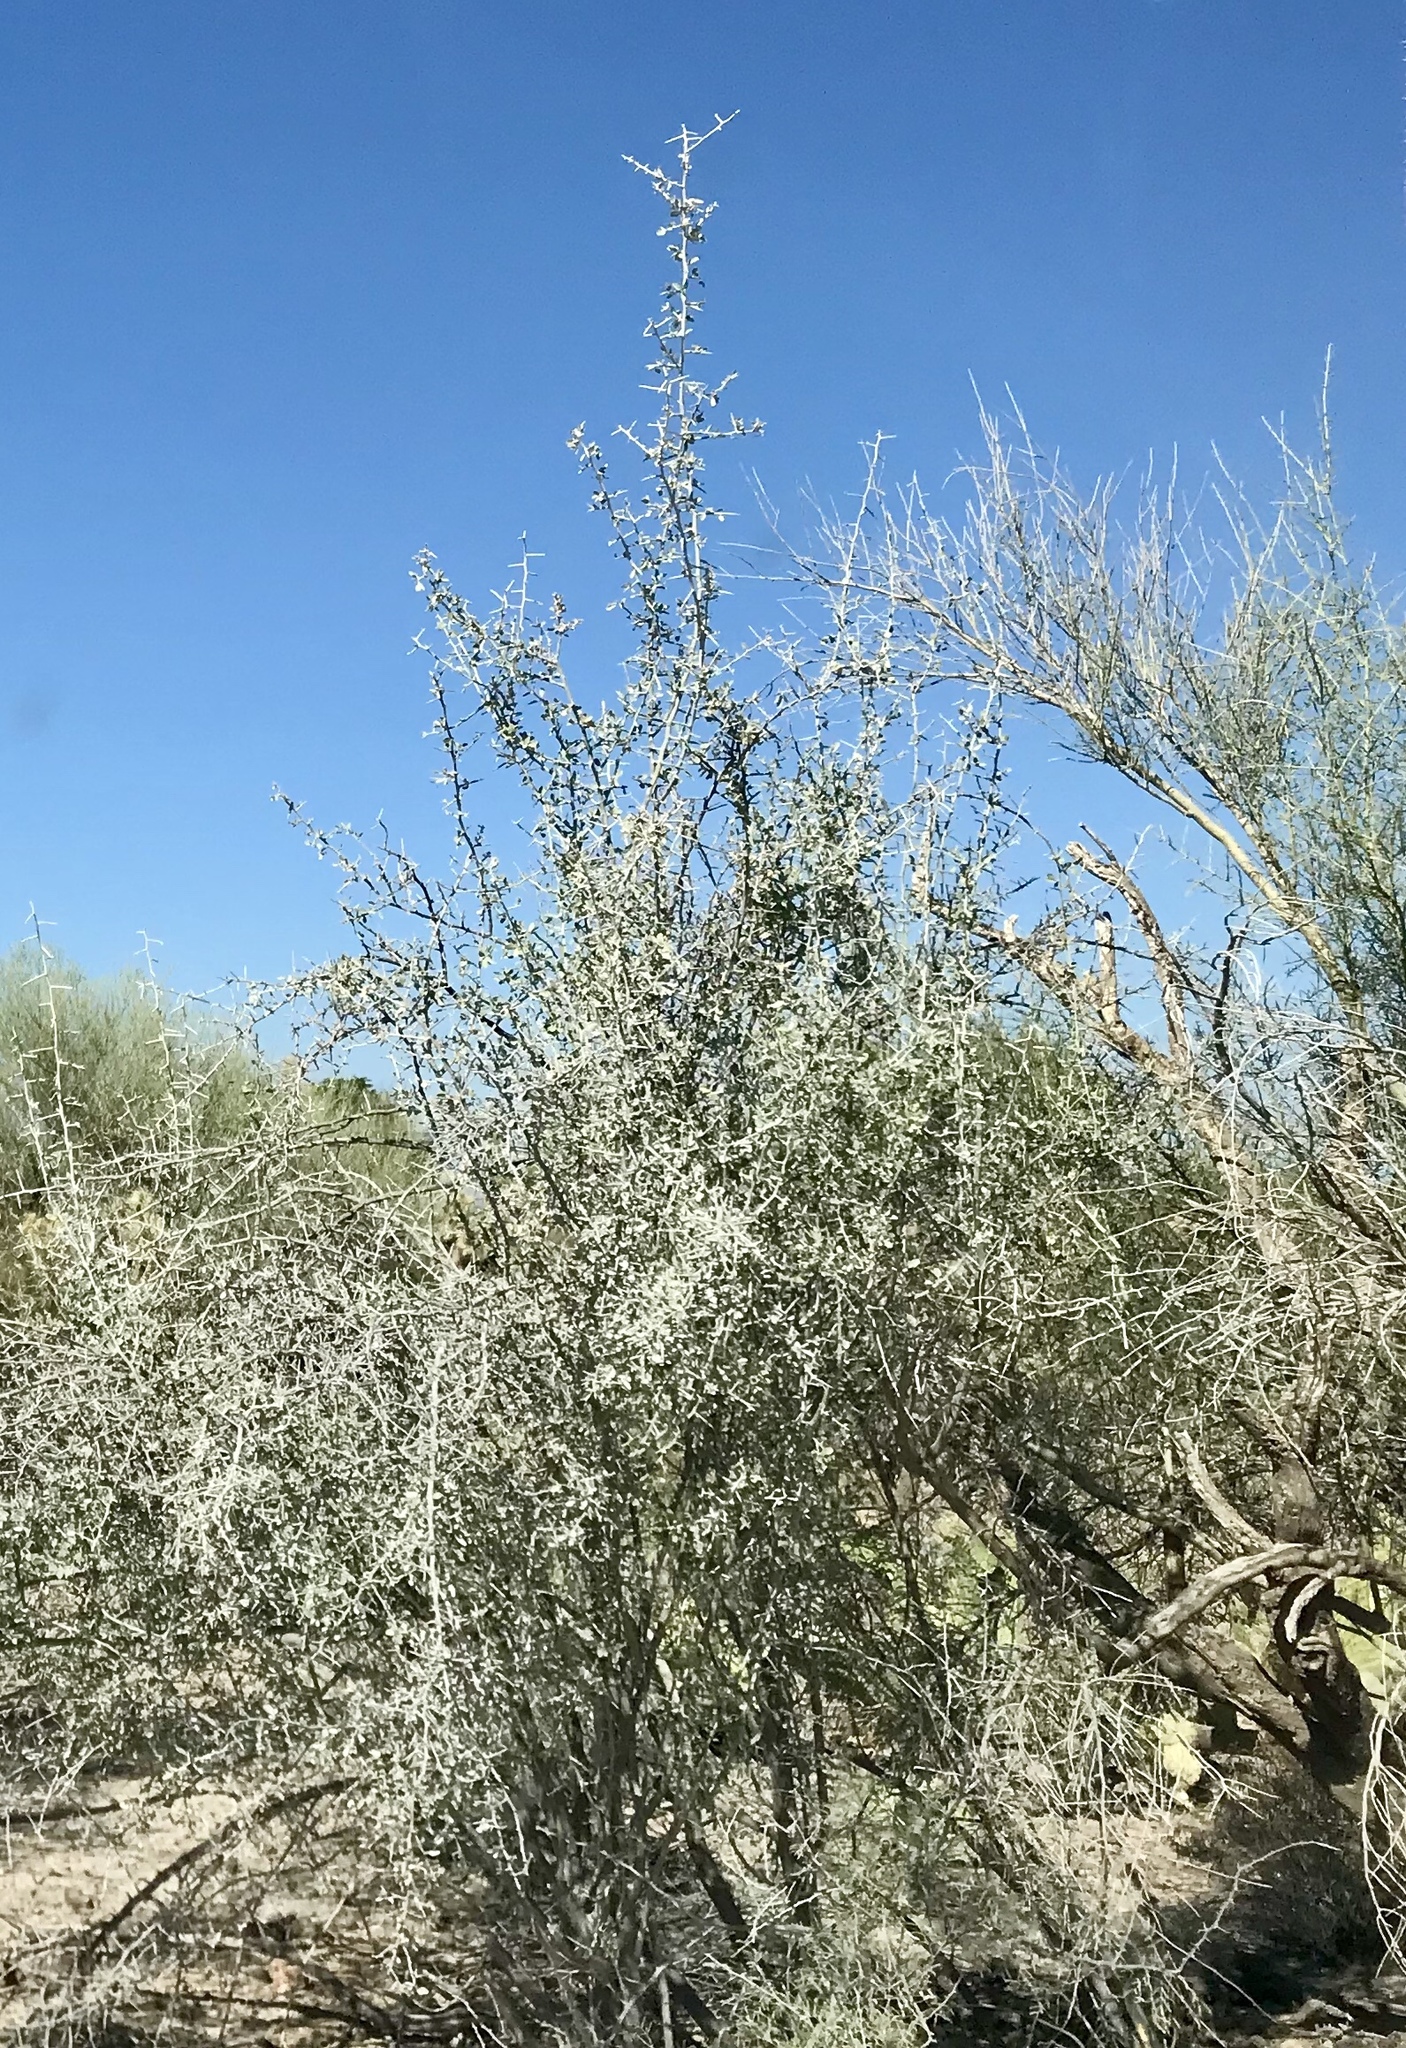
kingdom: Plantae
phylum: Tracheophyta
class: Magnoliopsida
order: Rosales
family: Rhamnaceae
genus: Sarcomphalus
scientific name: Sarcomphalus obtusifolius
